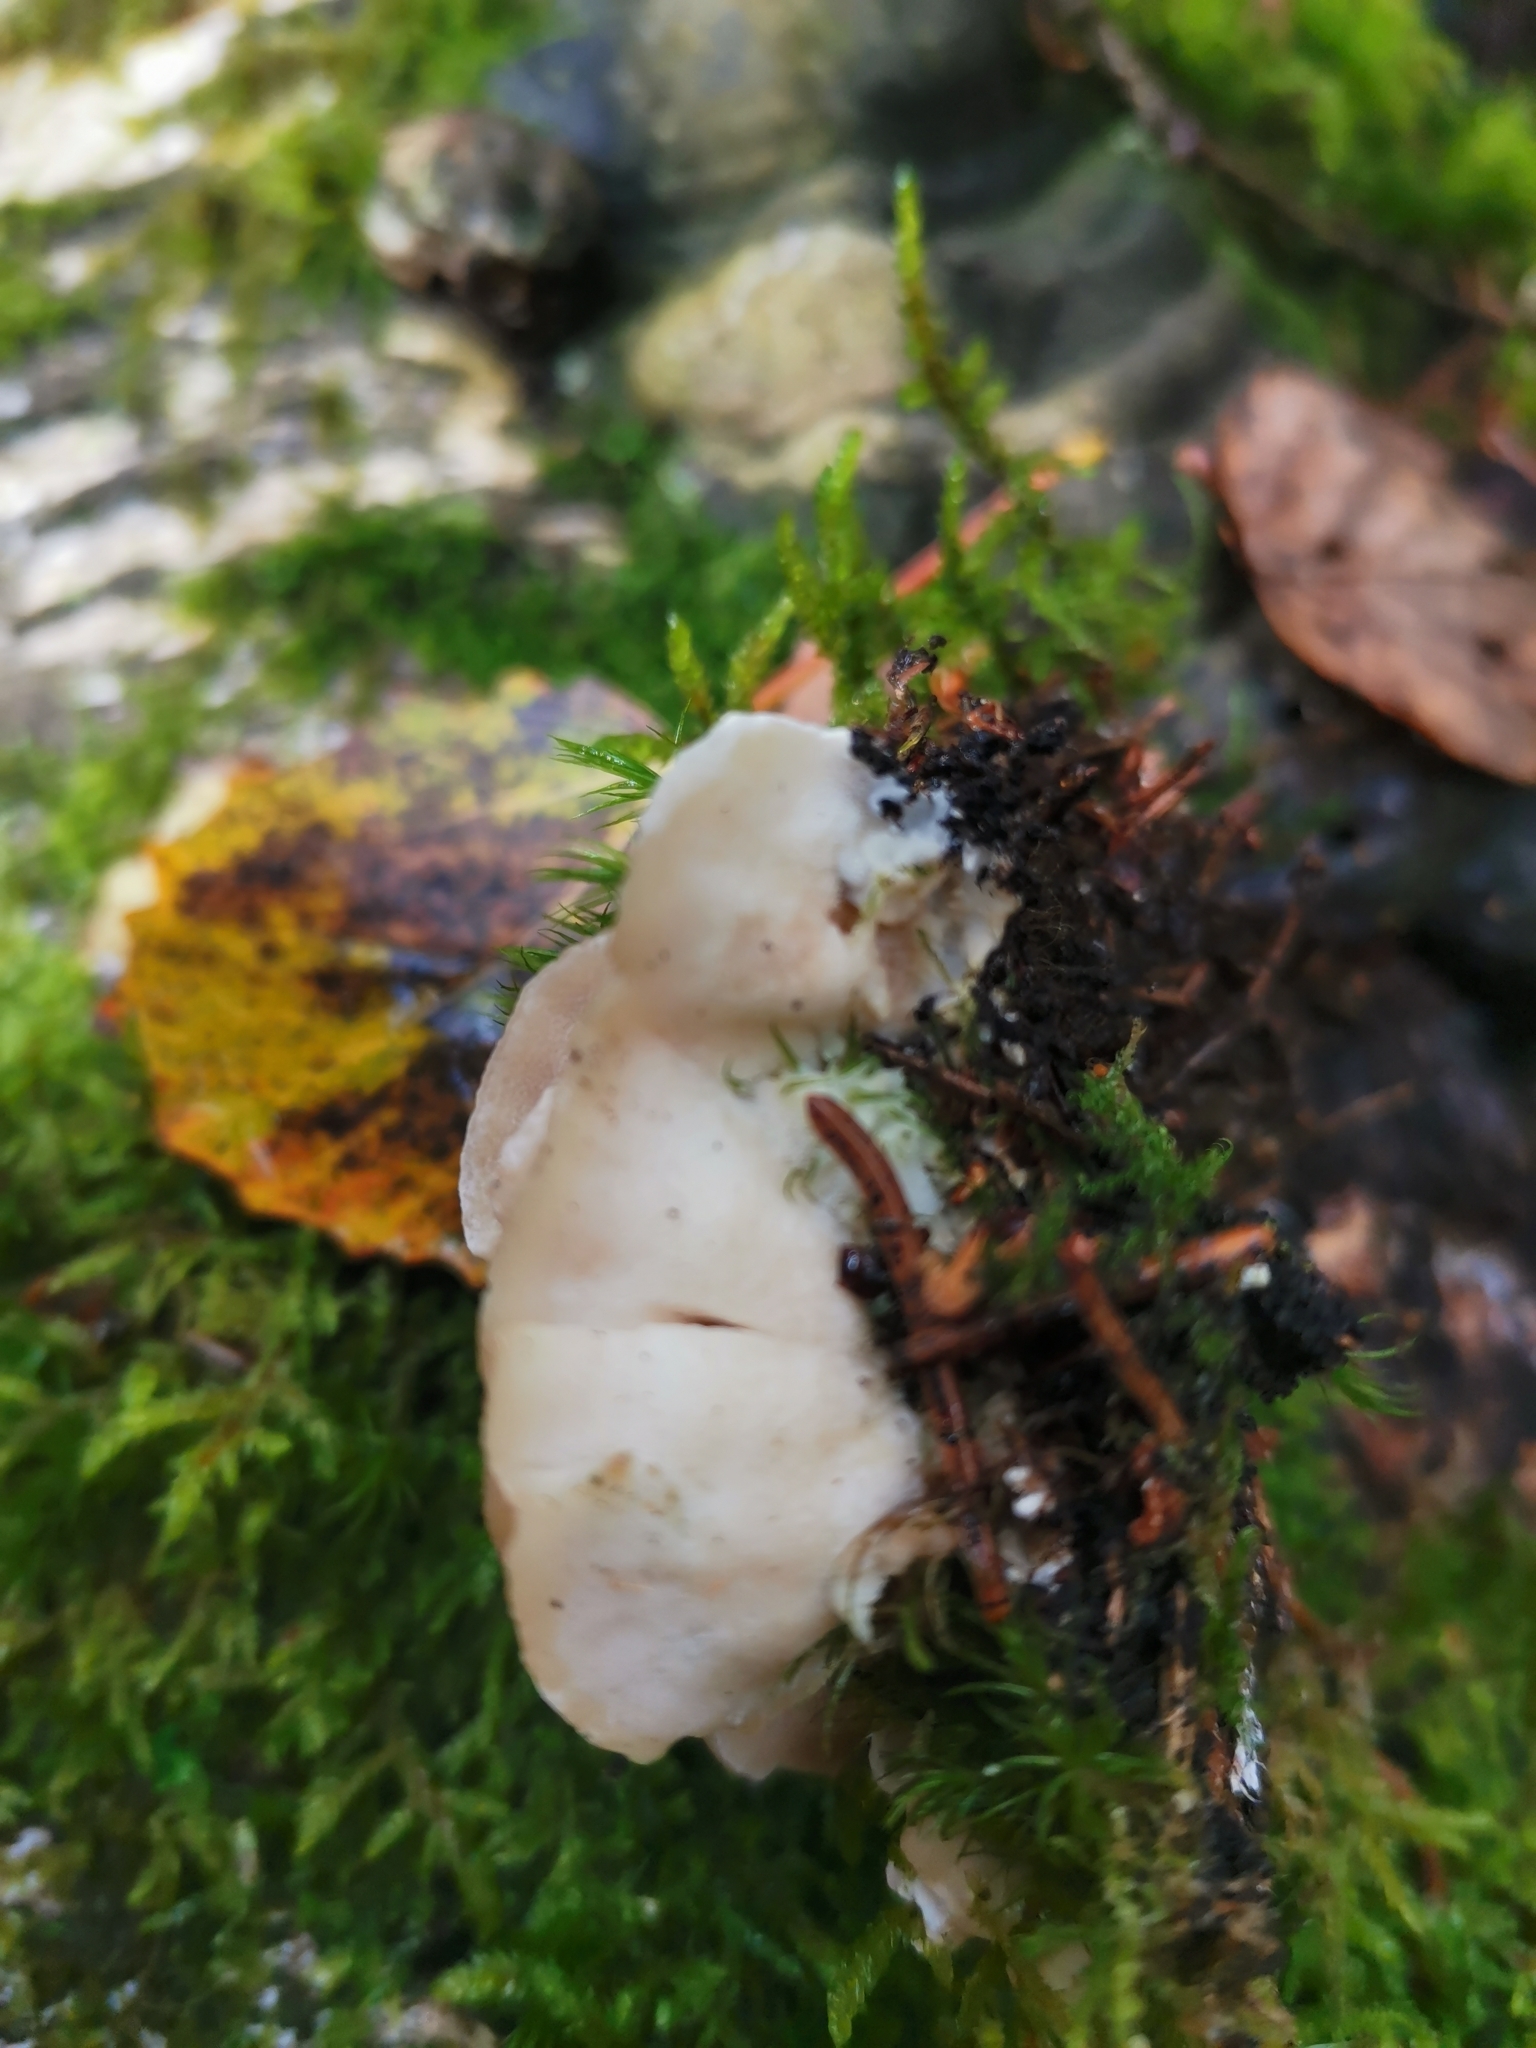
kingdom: Fungi
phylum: Basidiomycota
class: Agaricomycetes
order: Polyporales
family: Steccherinaceae
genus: Antrodiella
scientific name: Antrodiella pallescens
